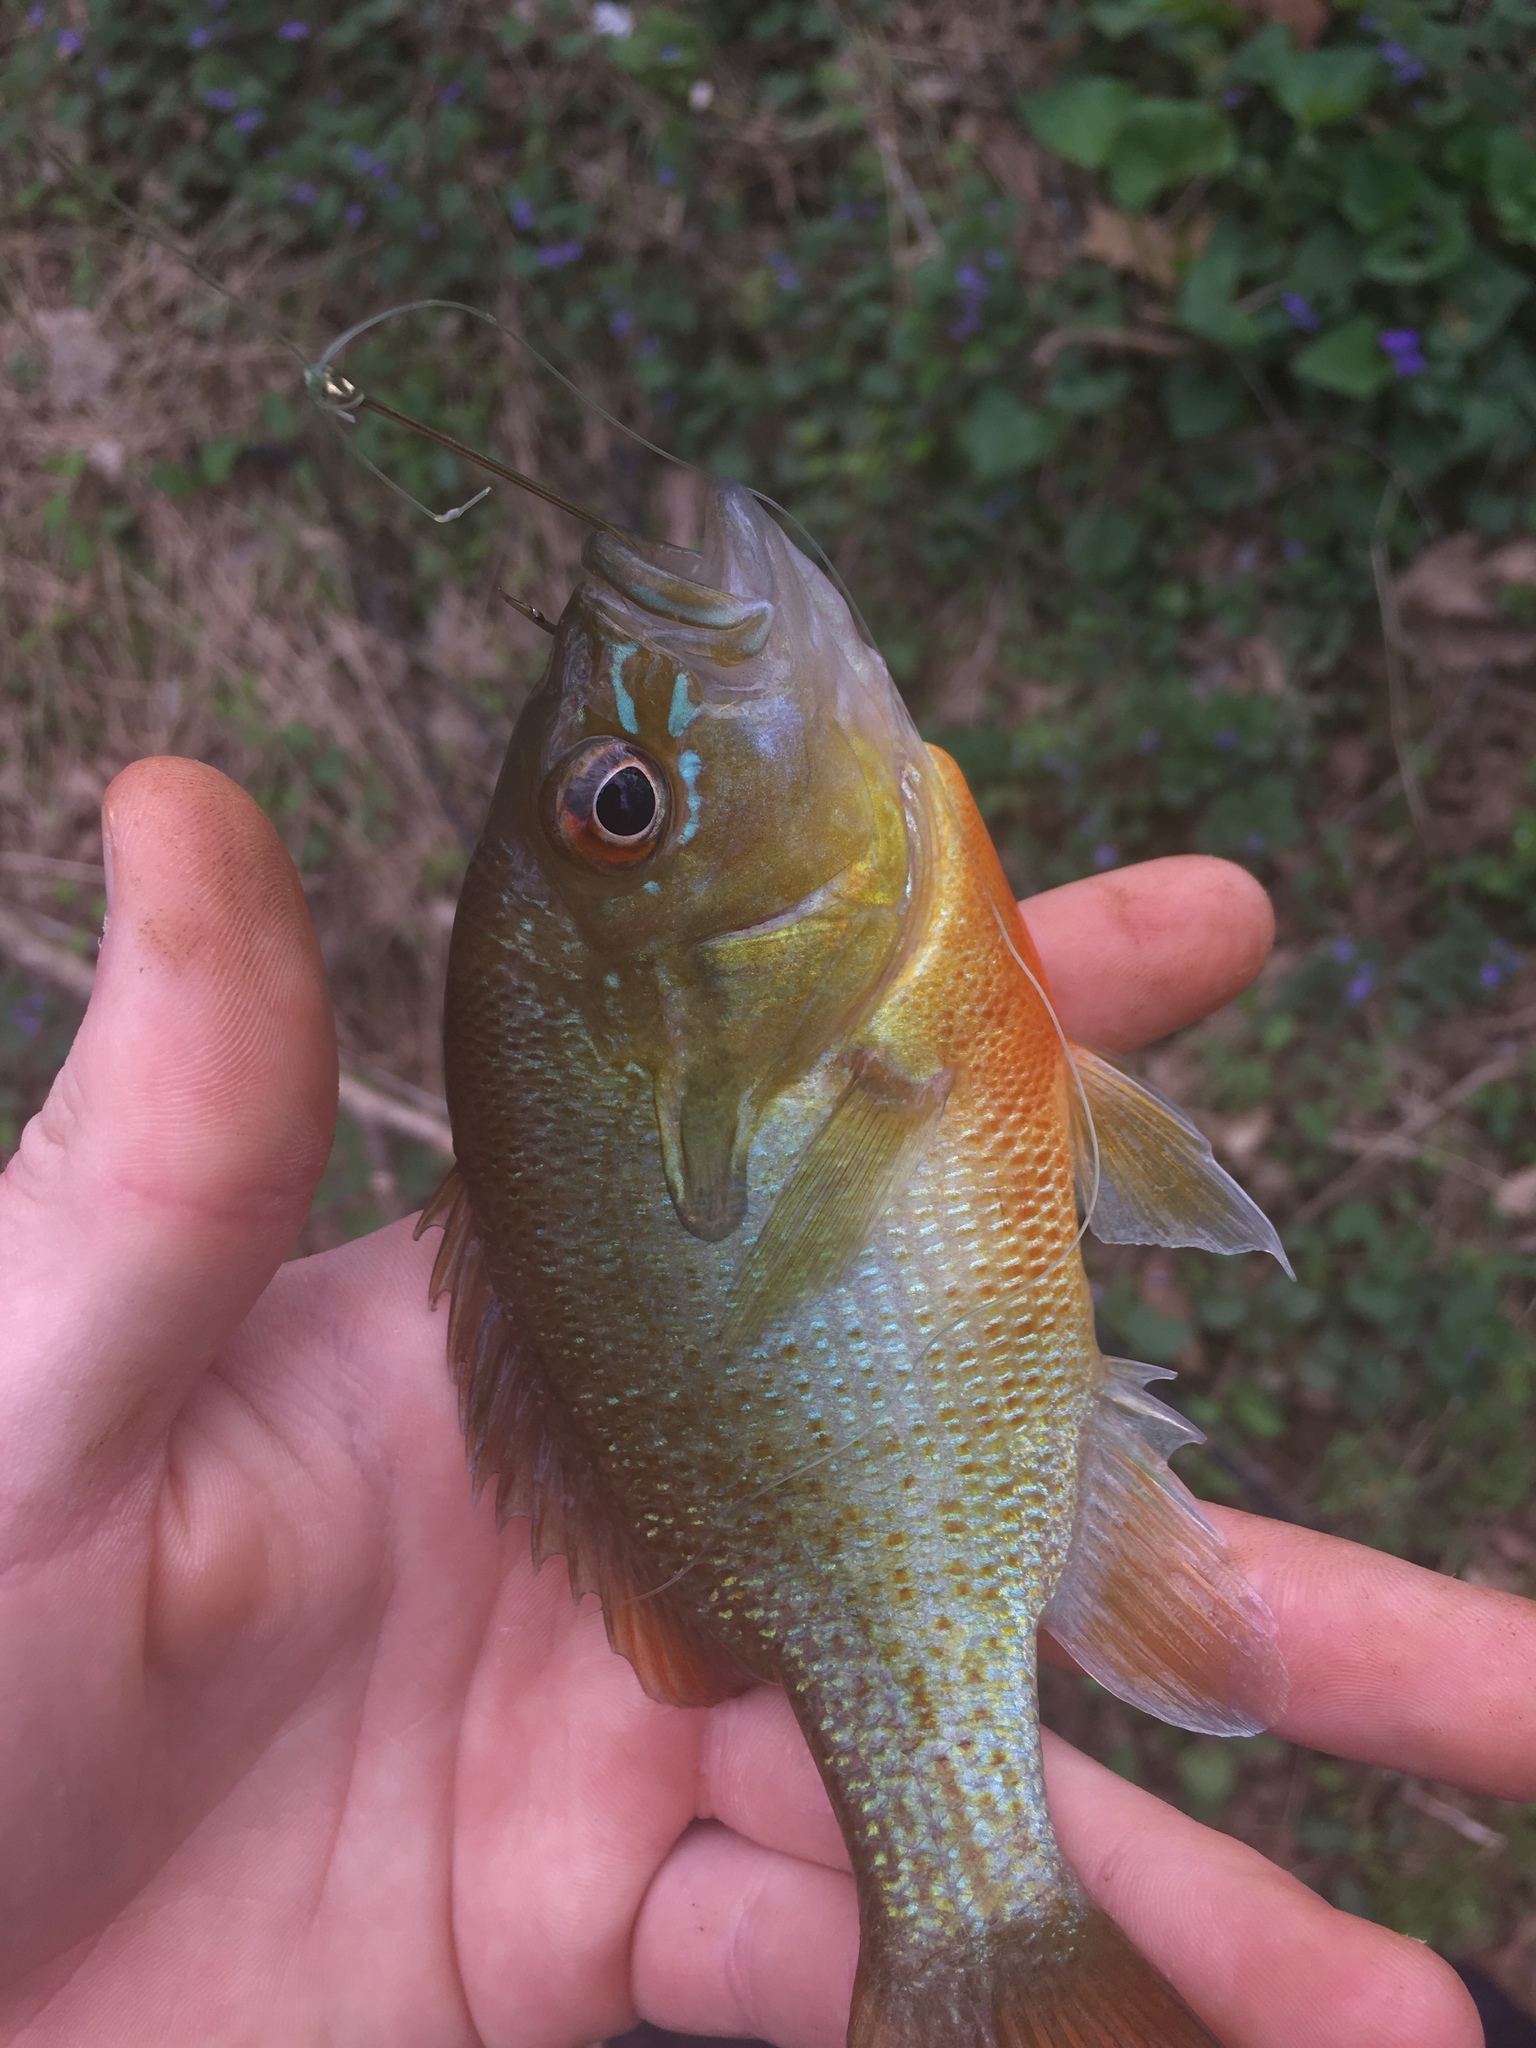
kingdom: Animalia
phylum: Chordata
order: Perciformes
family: Centrarchidae
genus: Lepomis
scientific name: Lepomis auritus
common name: Redbreast sunfish
